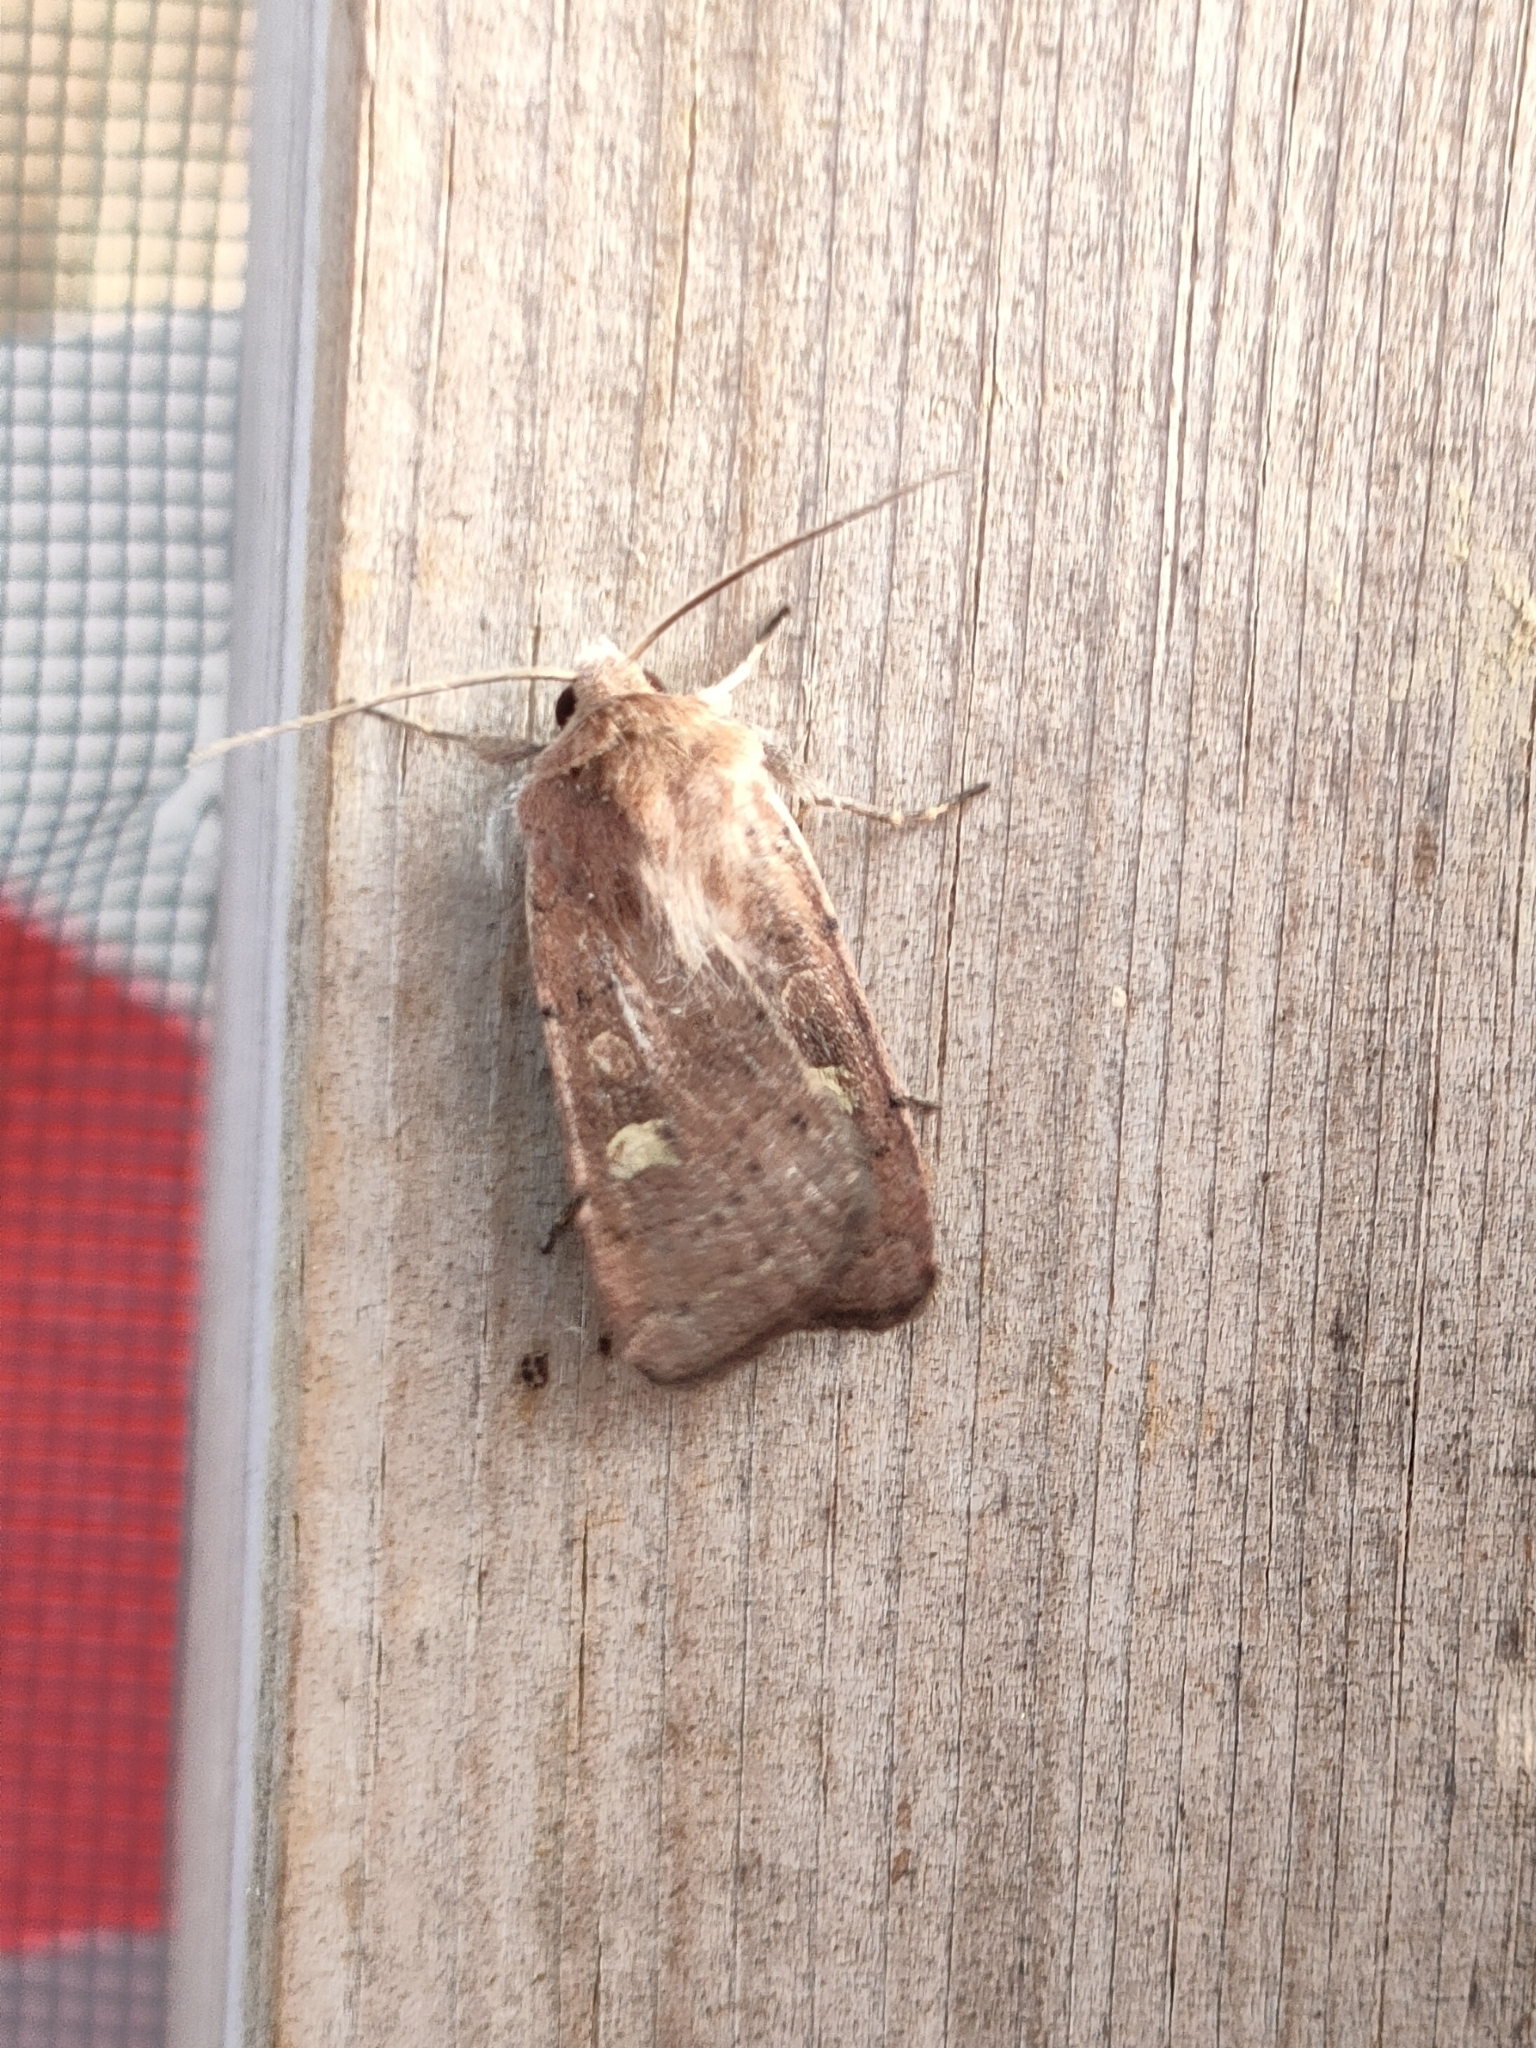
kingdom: Animalia
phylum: Arthropoda
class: Insecta
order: Lepidoptera
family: Noctuidae
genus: Xestia
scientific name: Xestia xanthographa
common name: Square-spot rustic
